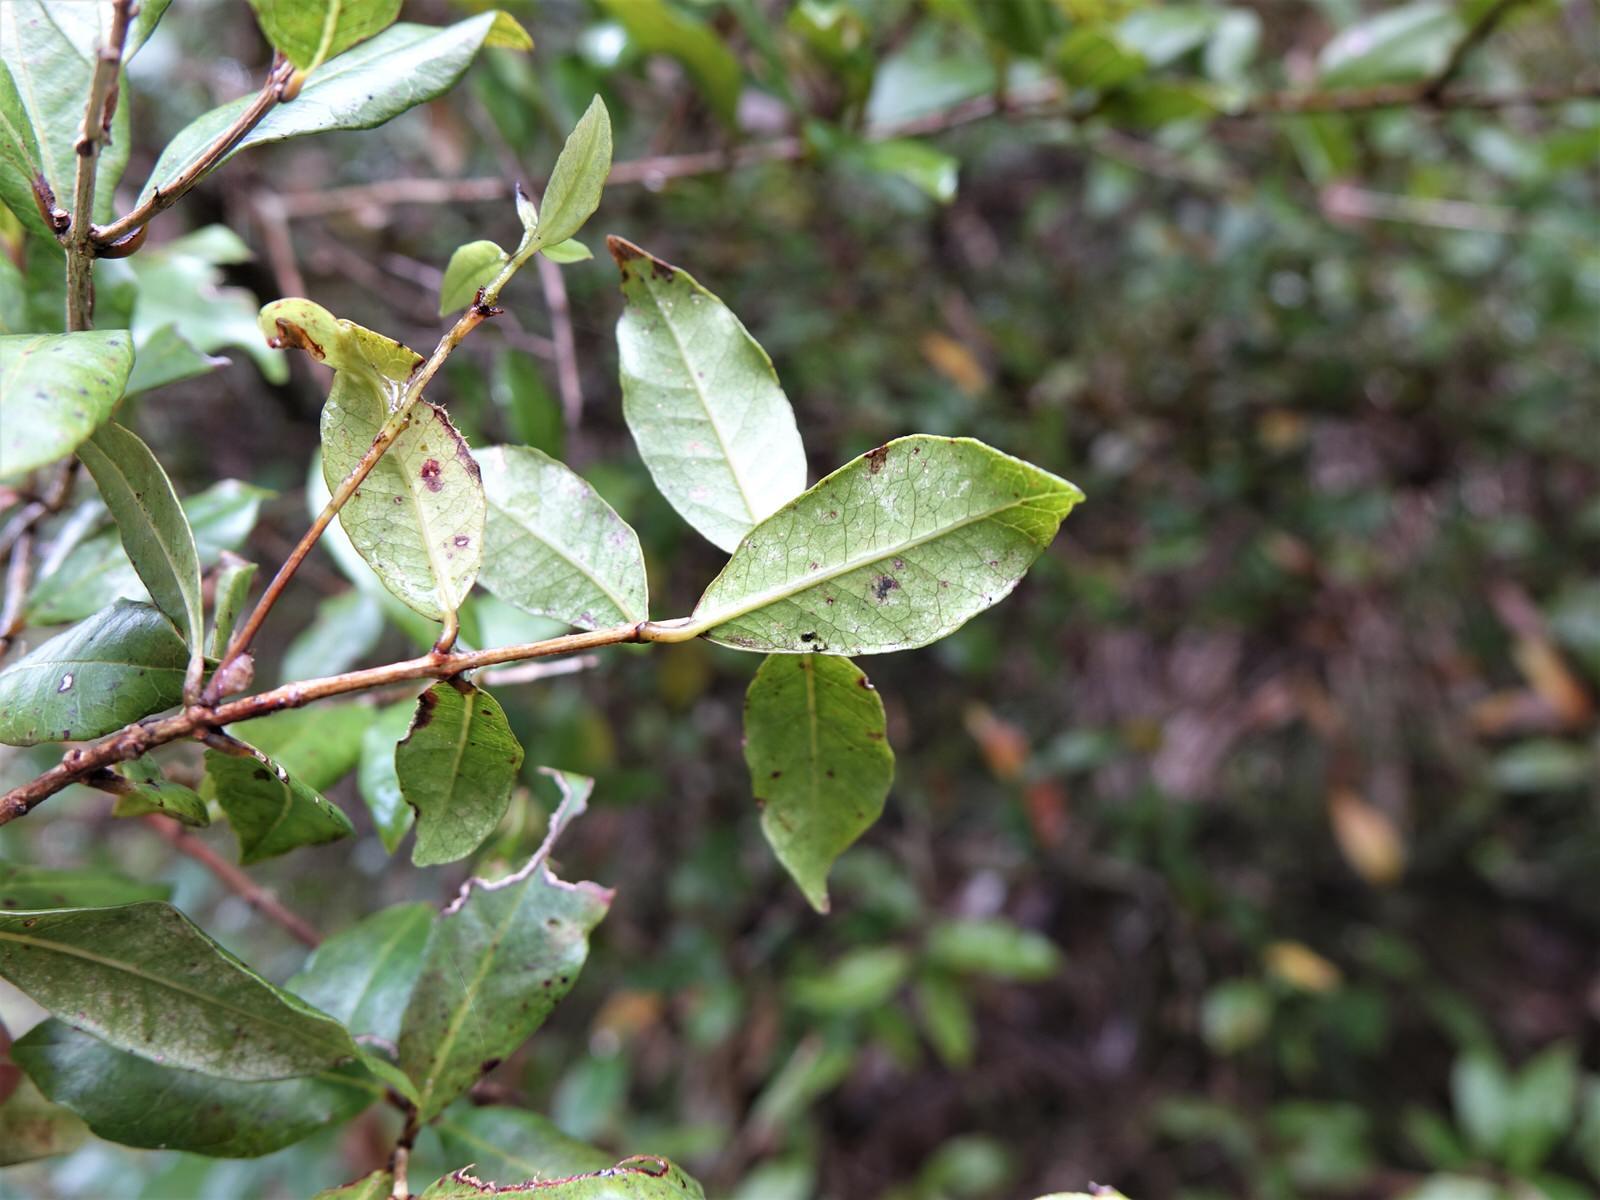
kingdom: Plantae
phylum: Tracheophyta
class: Magnoliopsida
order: Myrtales
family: Myrtaceae
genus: Syzygium
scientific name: Syzygium maire
